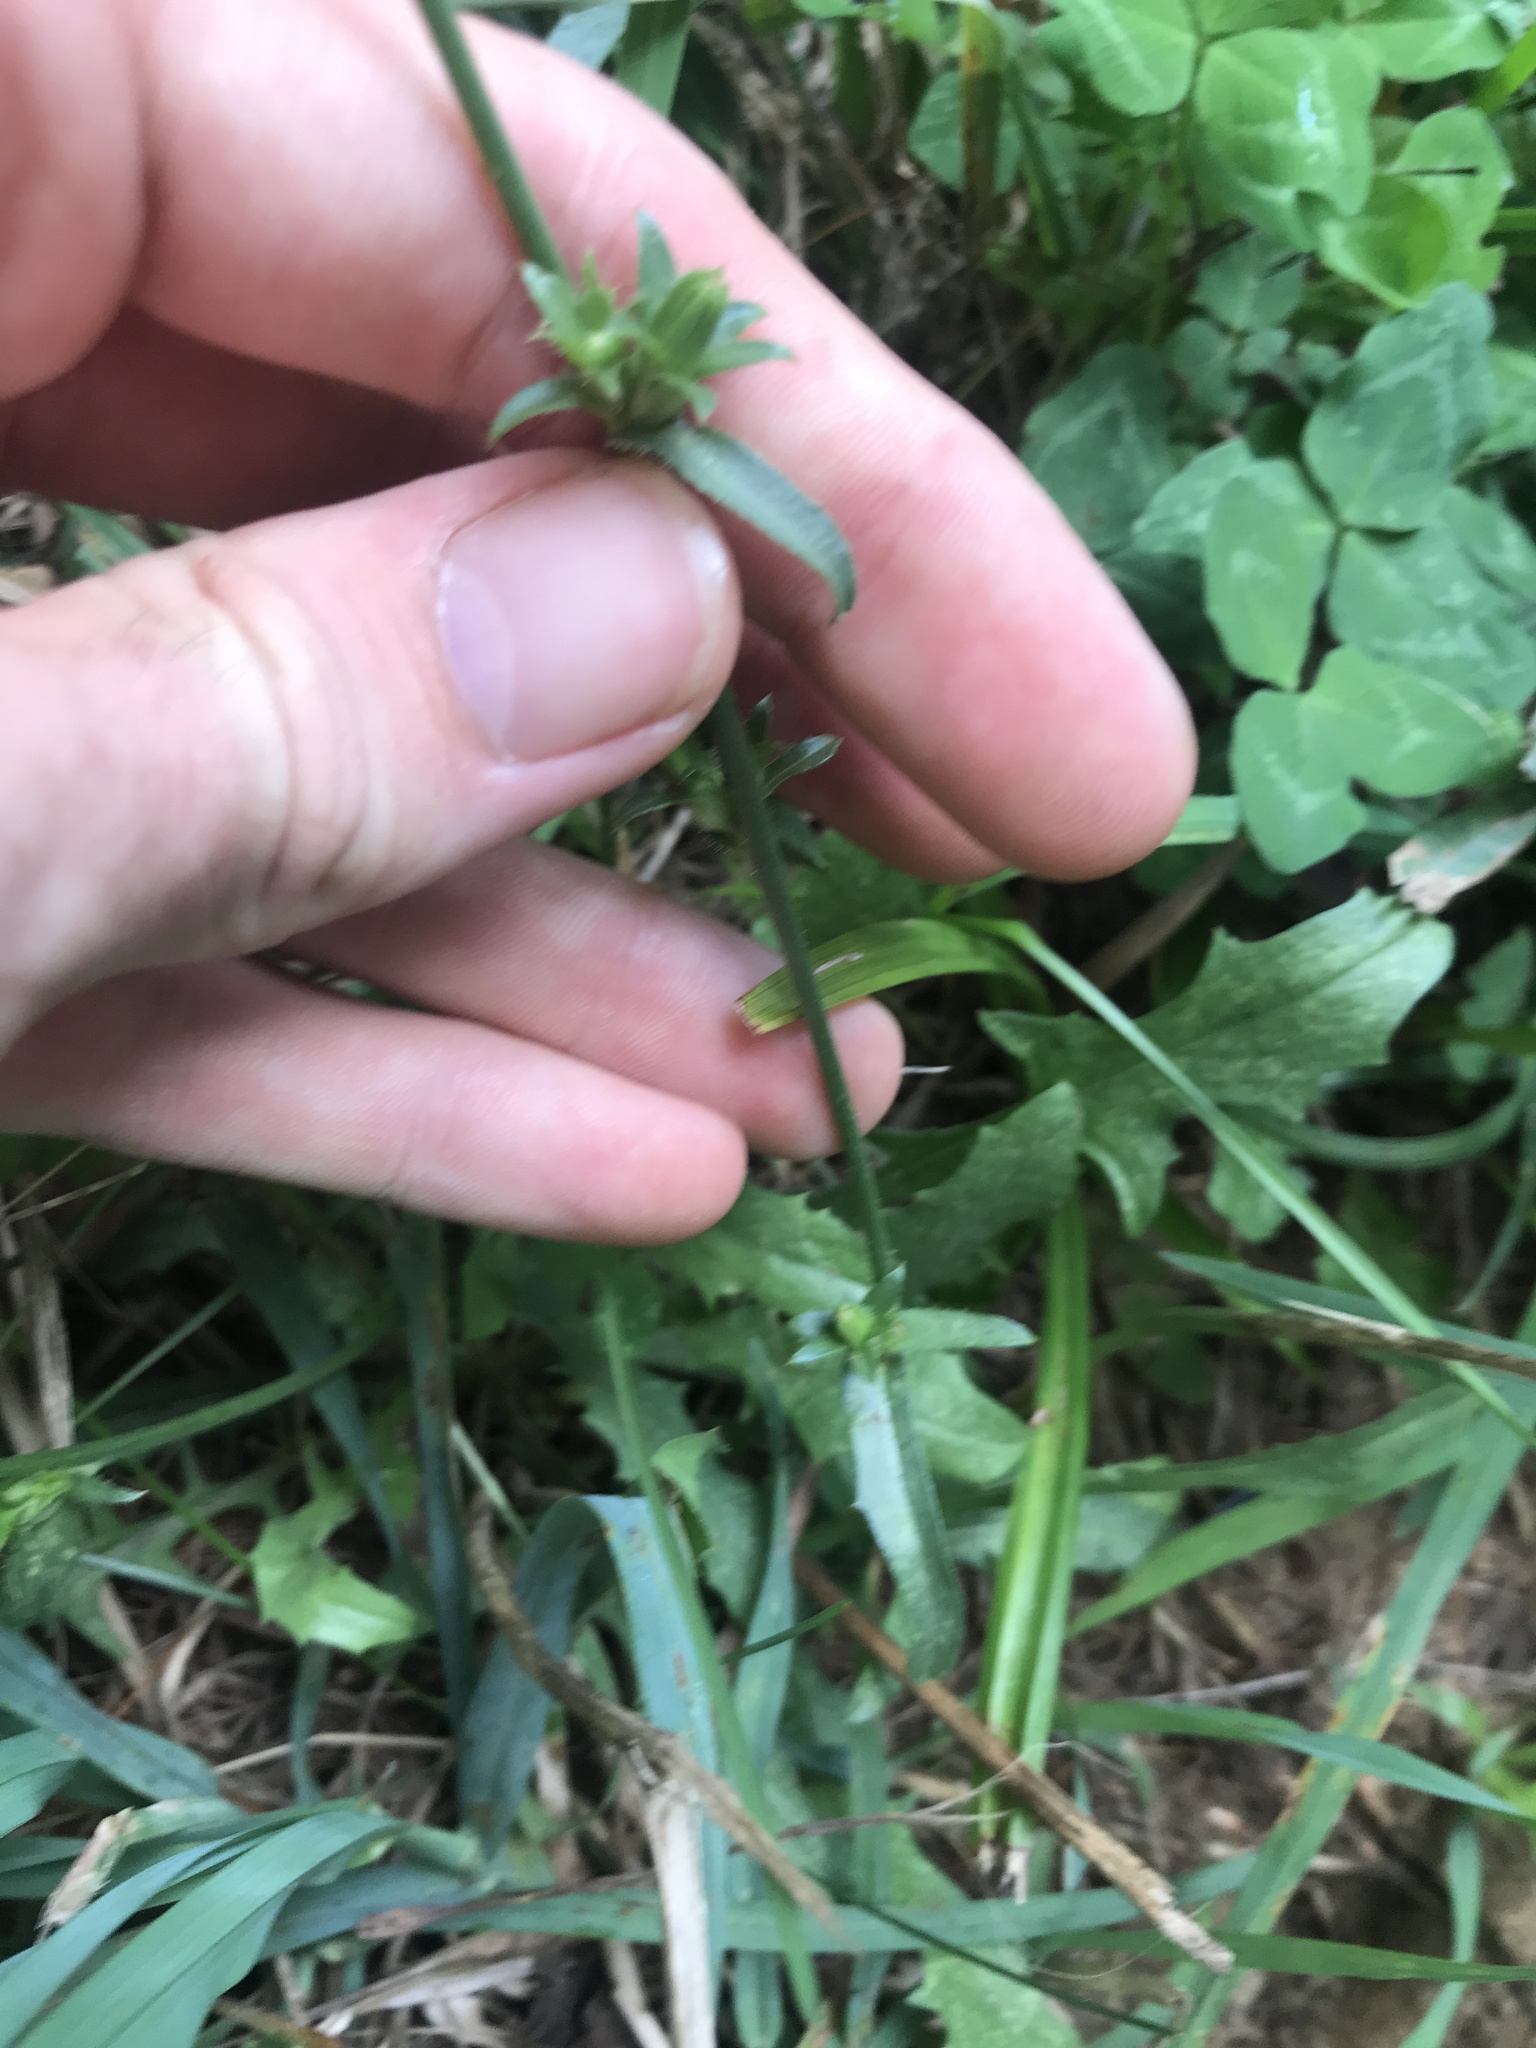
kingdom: Plantae
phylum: Tracheophyta
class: Magnoliopsida
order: Asterales
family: Asteraceae
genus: Cichorium
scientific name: Cichorium intybus
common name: Chicory
